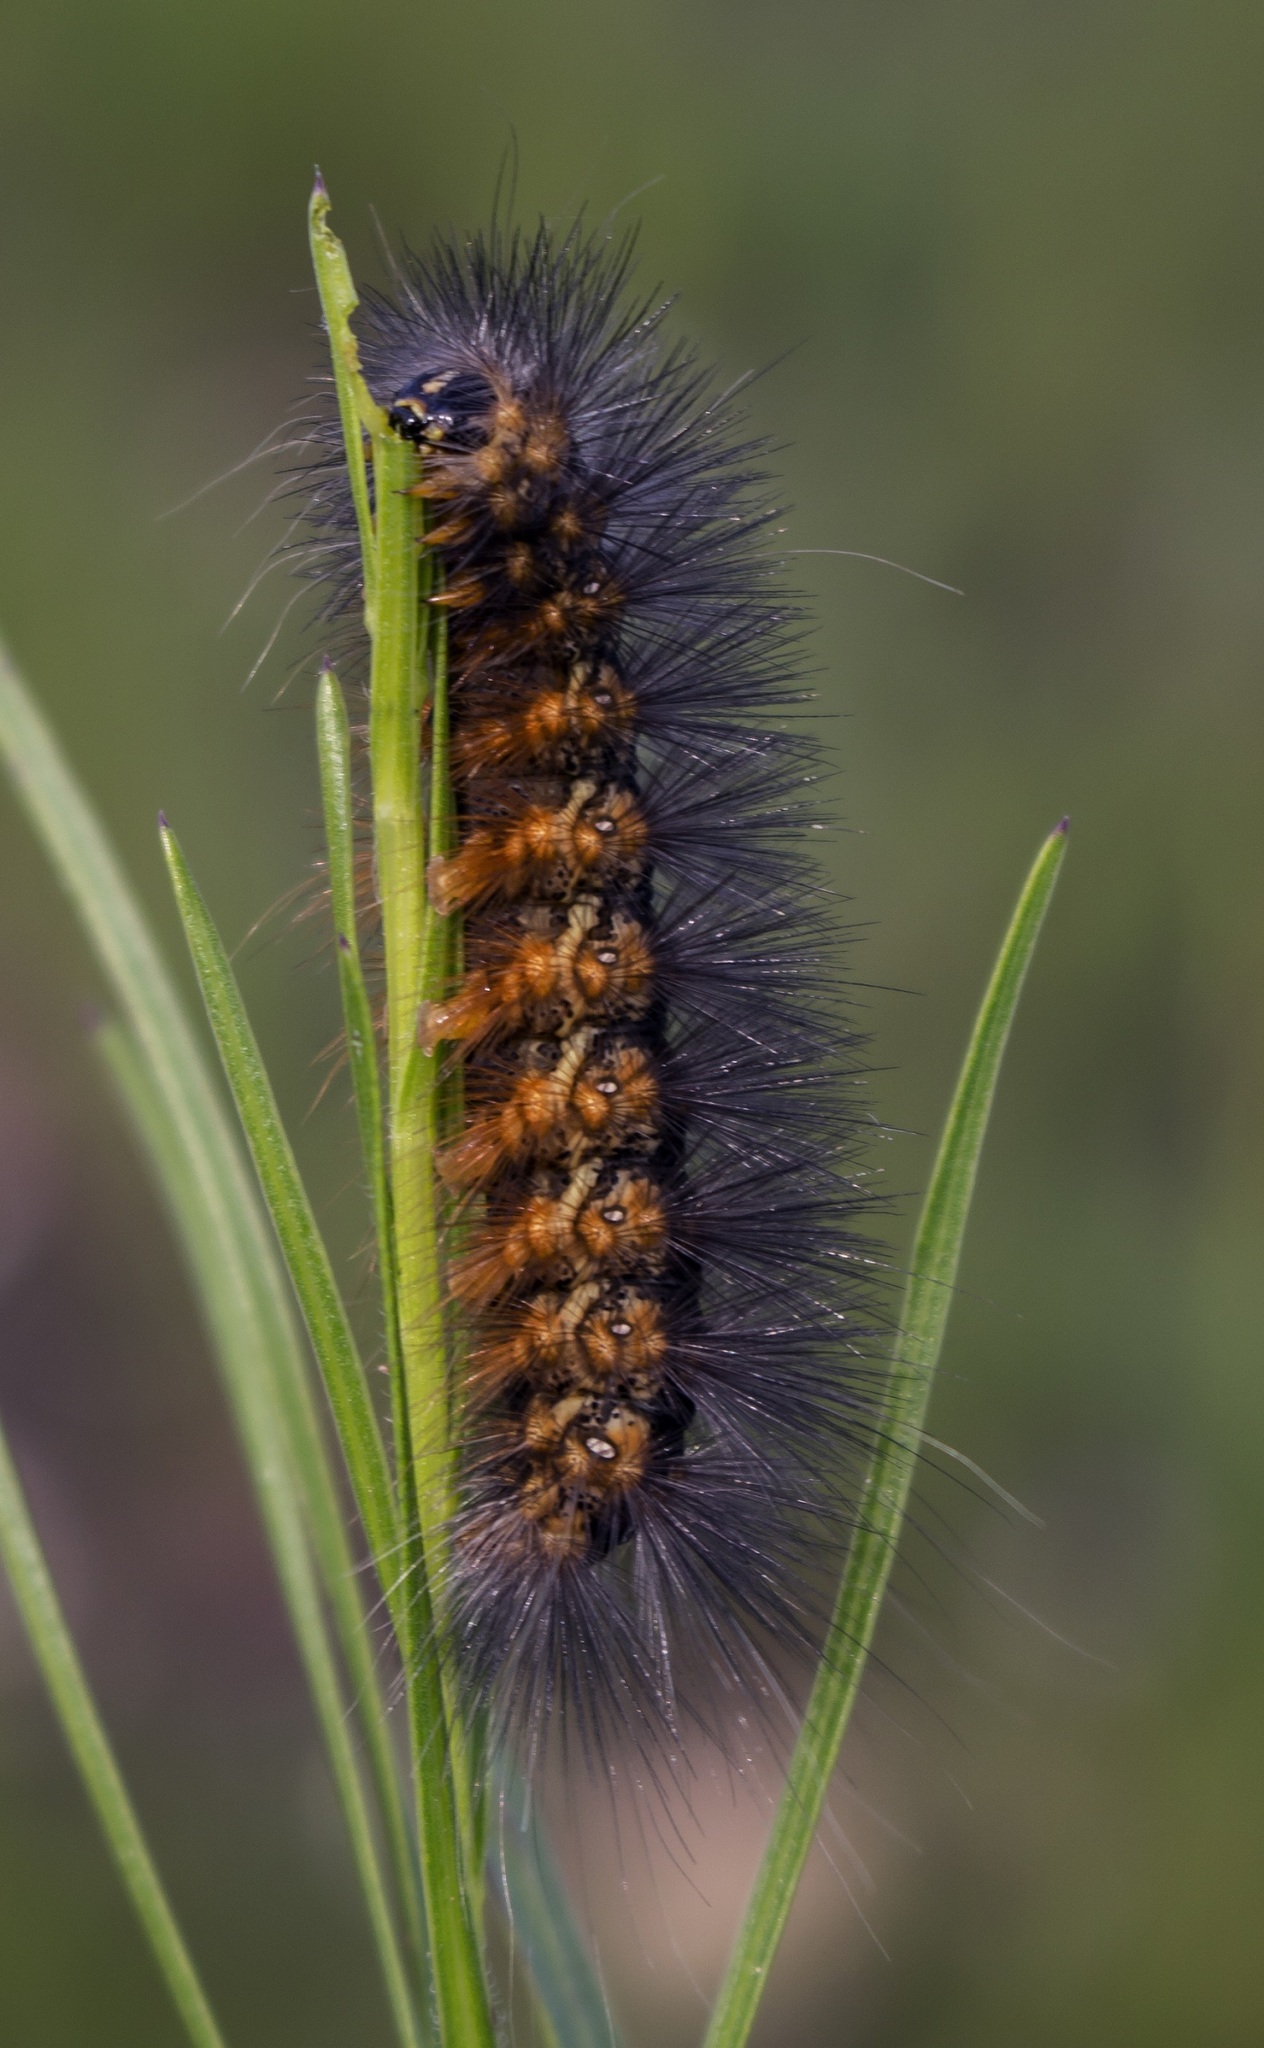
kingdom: Animalia
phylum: Arthropoda
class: Insecta
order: Lepidoptera
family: Erebidae
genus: Estigmene
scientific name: Estigmene acrea
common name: Salt marsh moth
